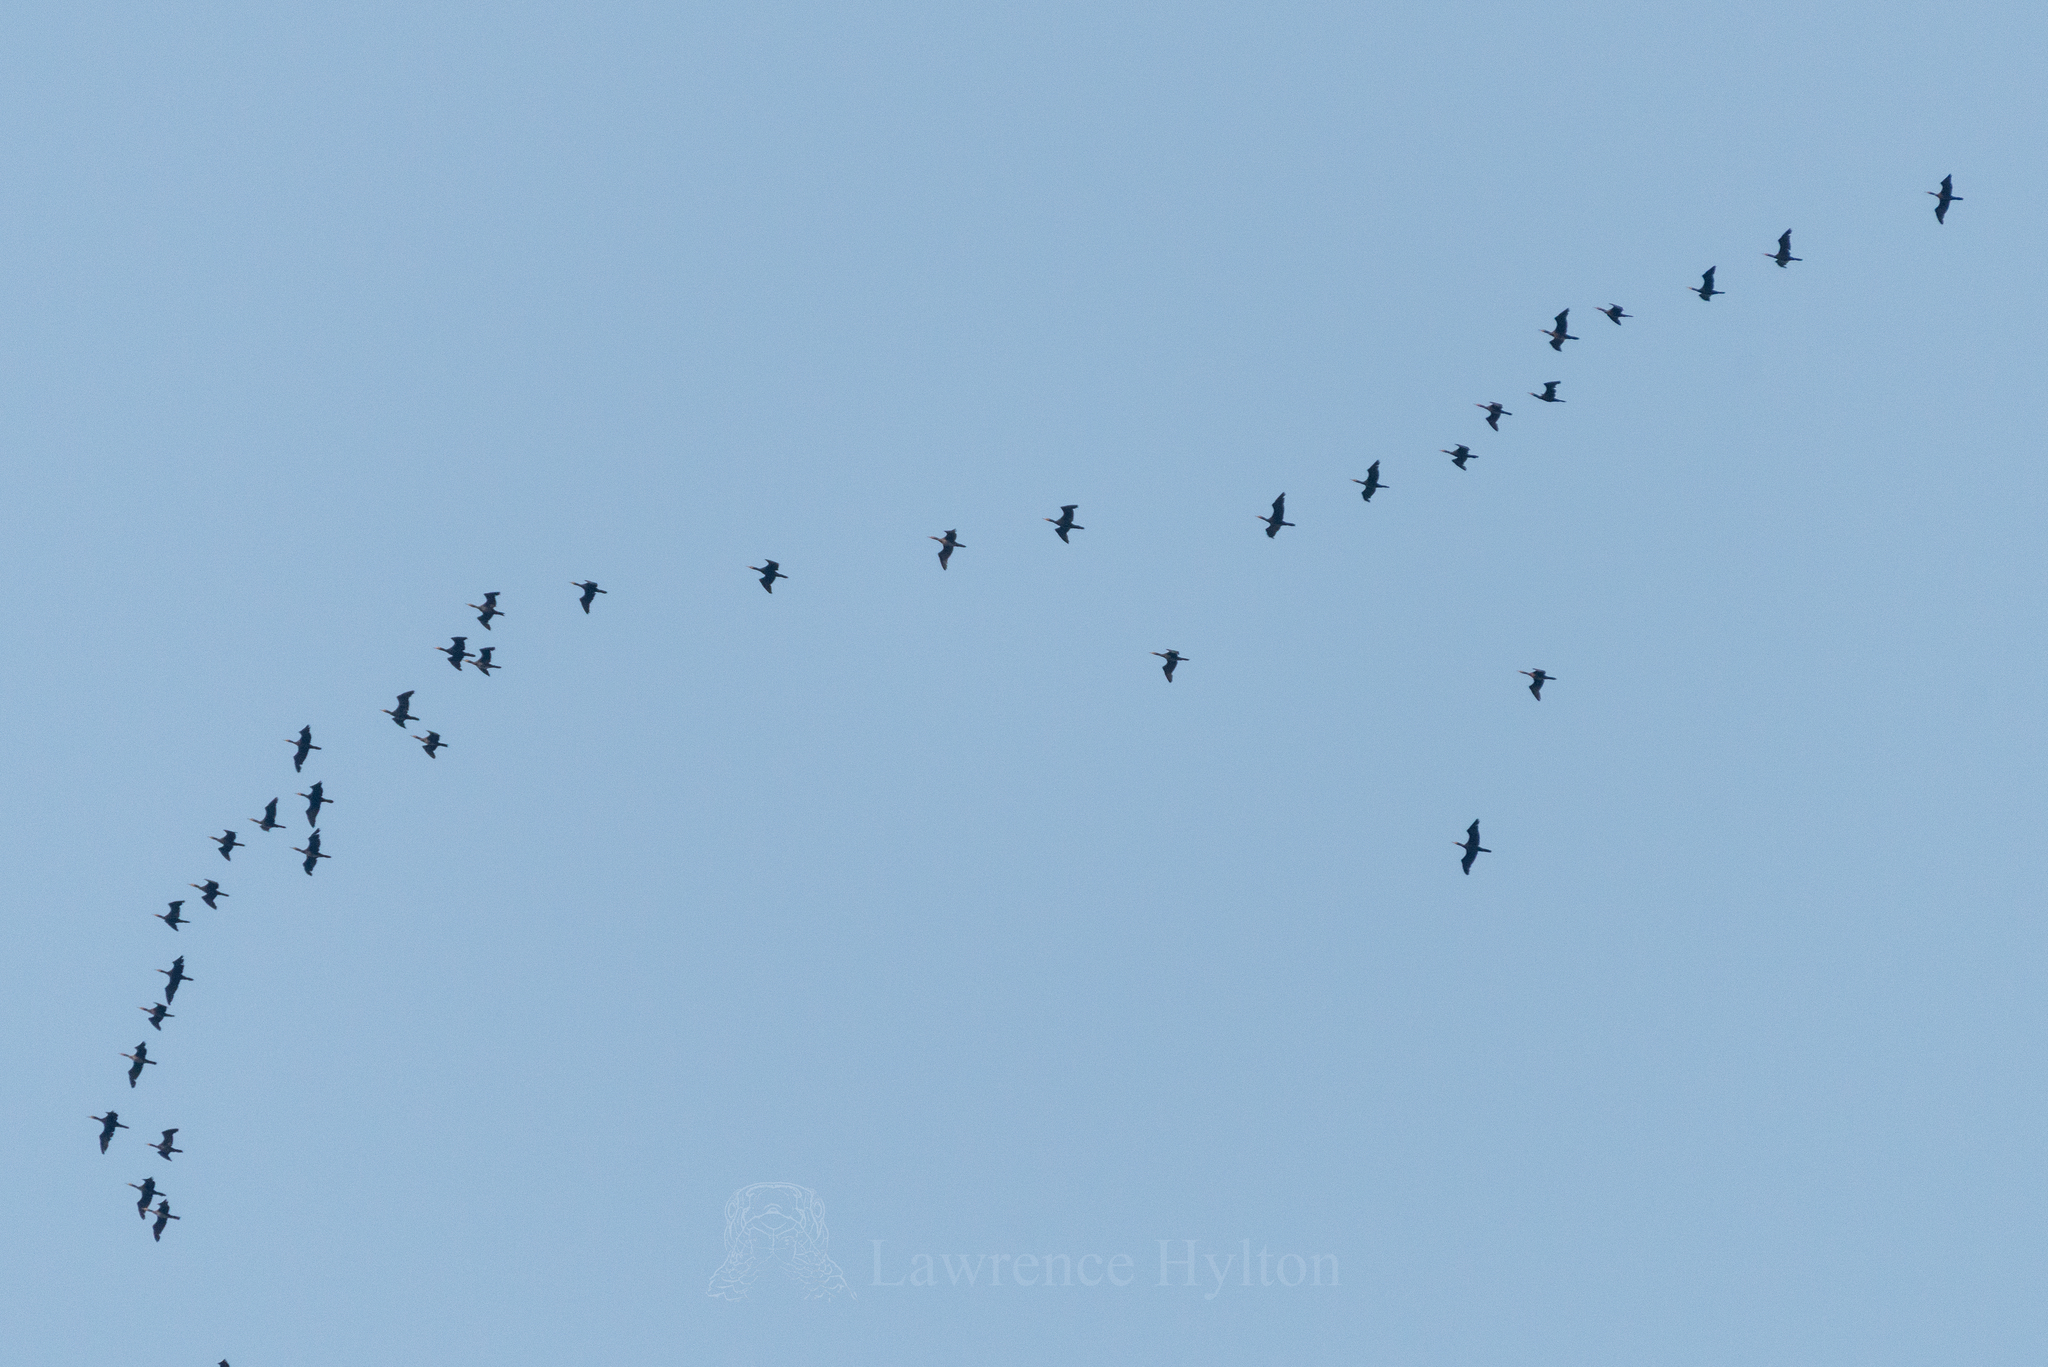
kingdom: Animalia
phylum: Chordata
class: Aves
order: Suliformes
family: Phalacrocoracidae
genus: Phalacrocorax
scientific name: Phalacrocorax carbo
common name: Great cormorant
